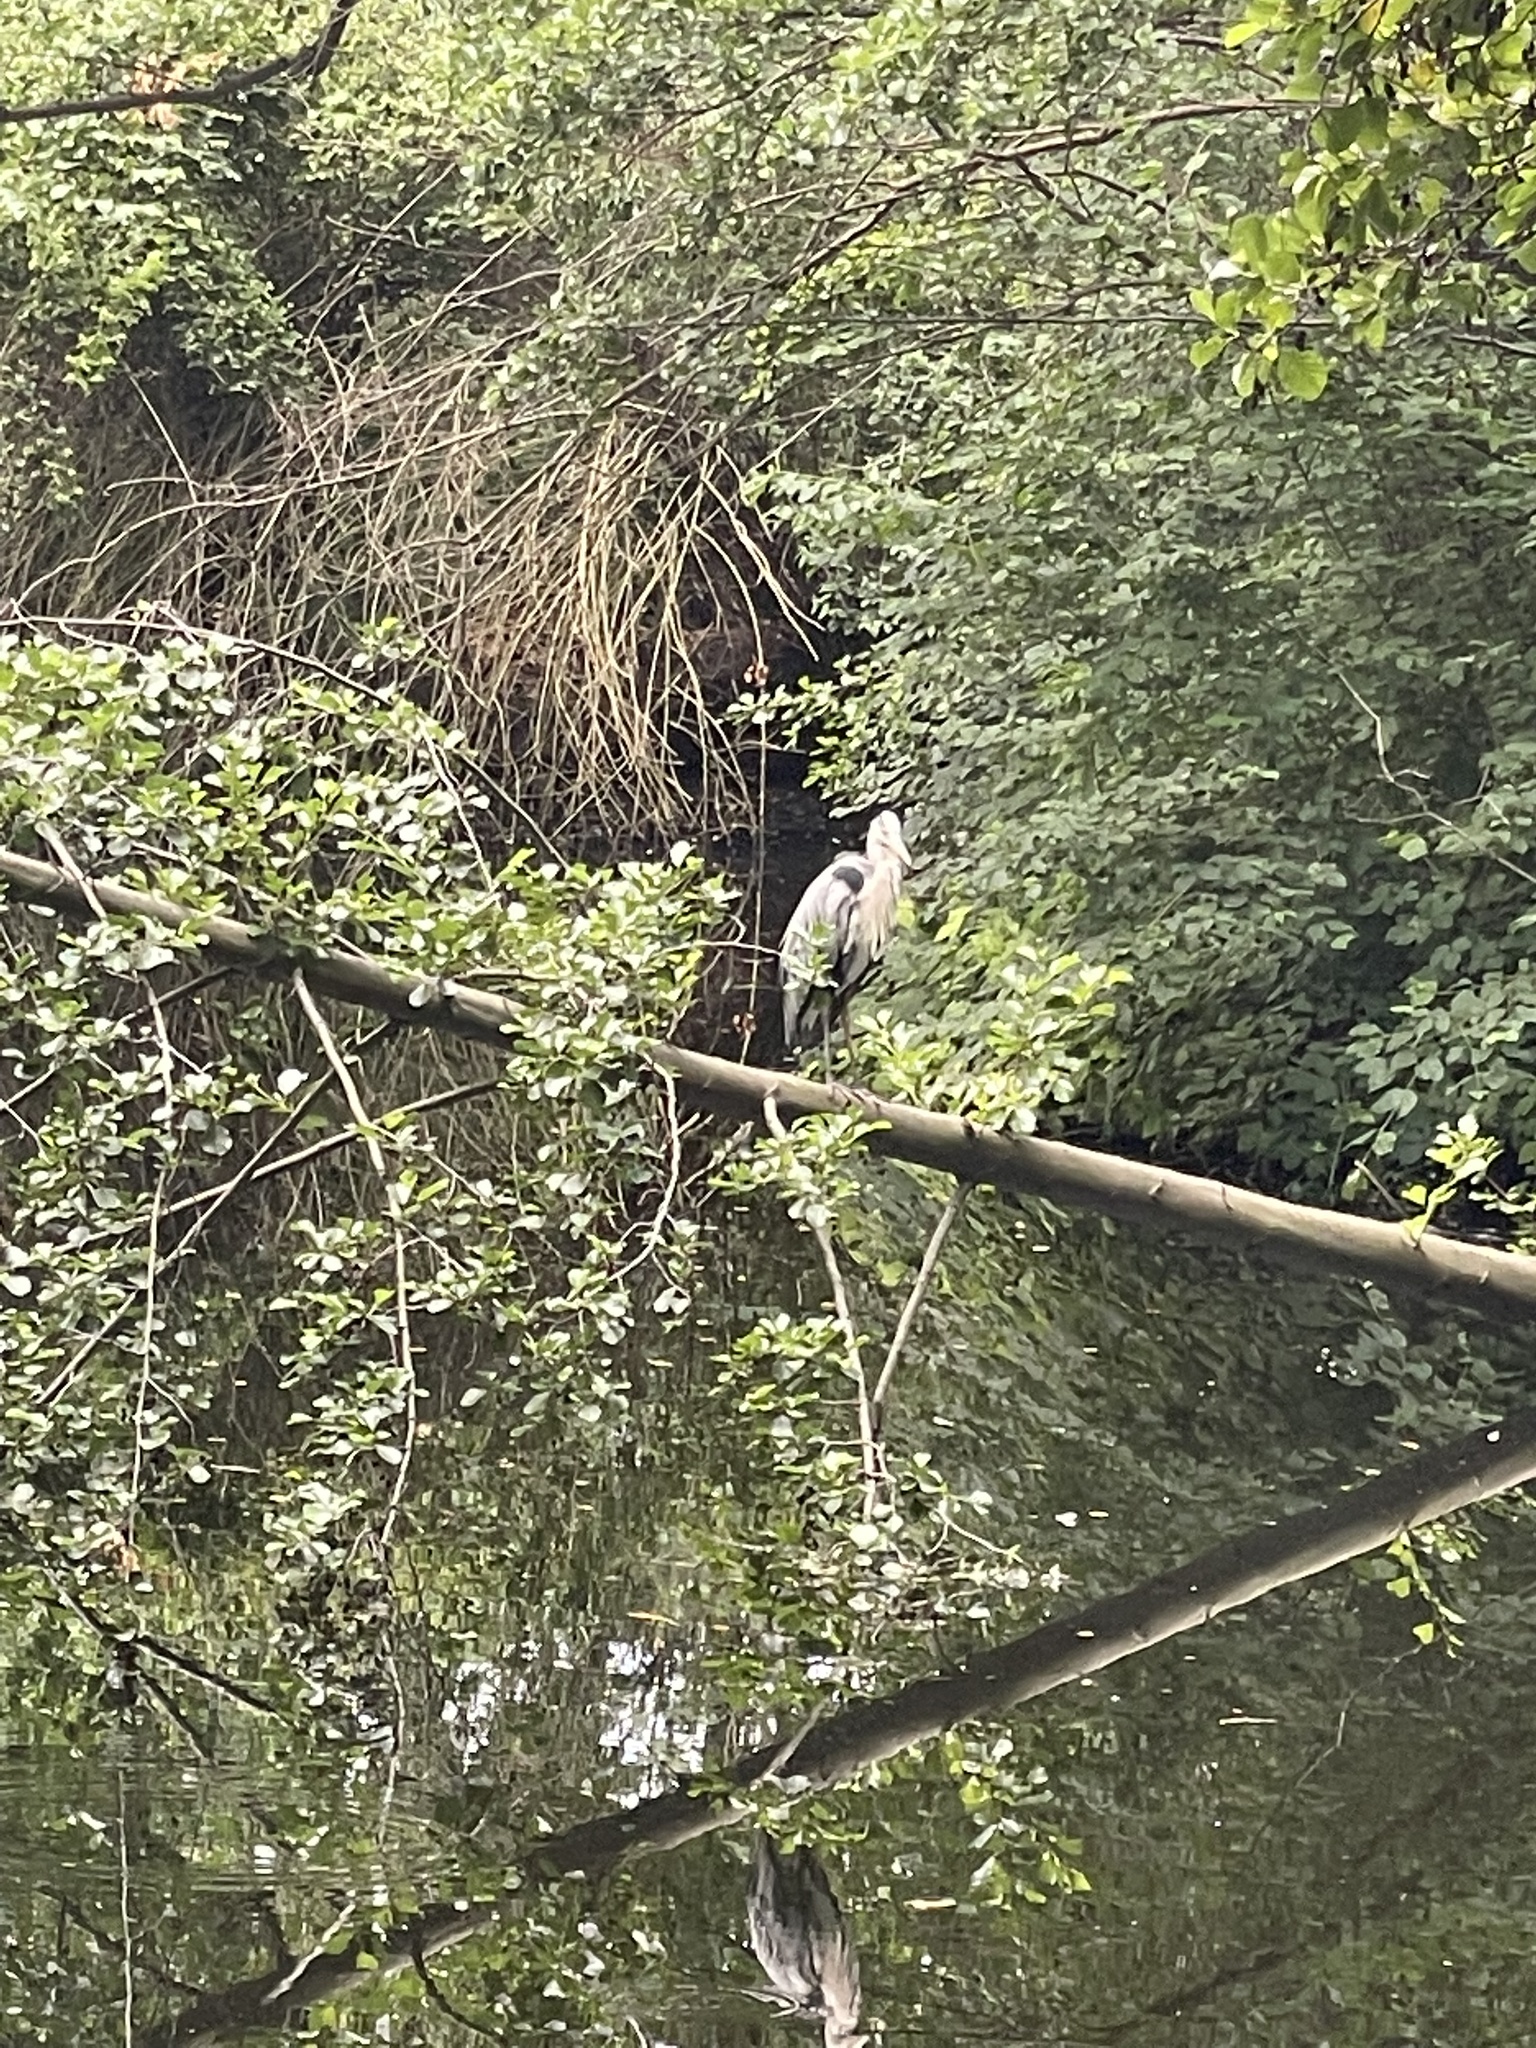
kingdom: Animalia
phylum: Chordata
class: Aves
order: Pelecaniformes
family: Ardeidae
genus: Ardea
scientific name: Ardea cinerea
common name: Grey heron
